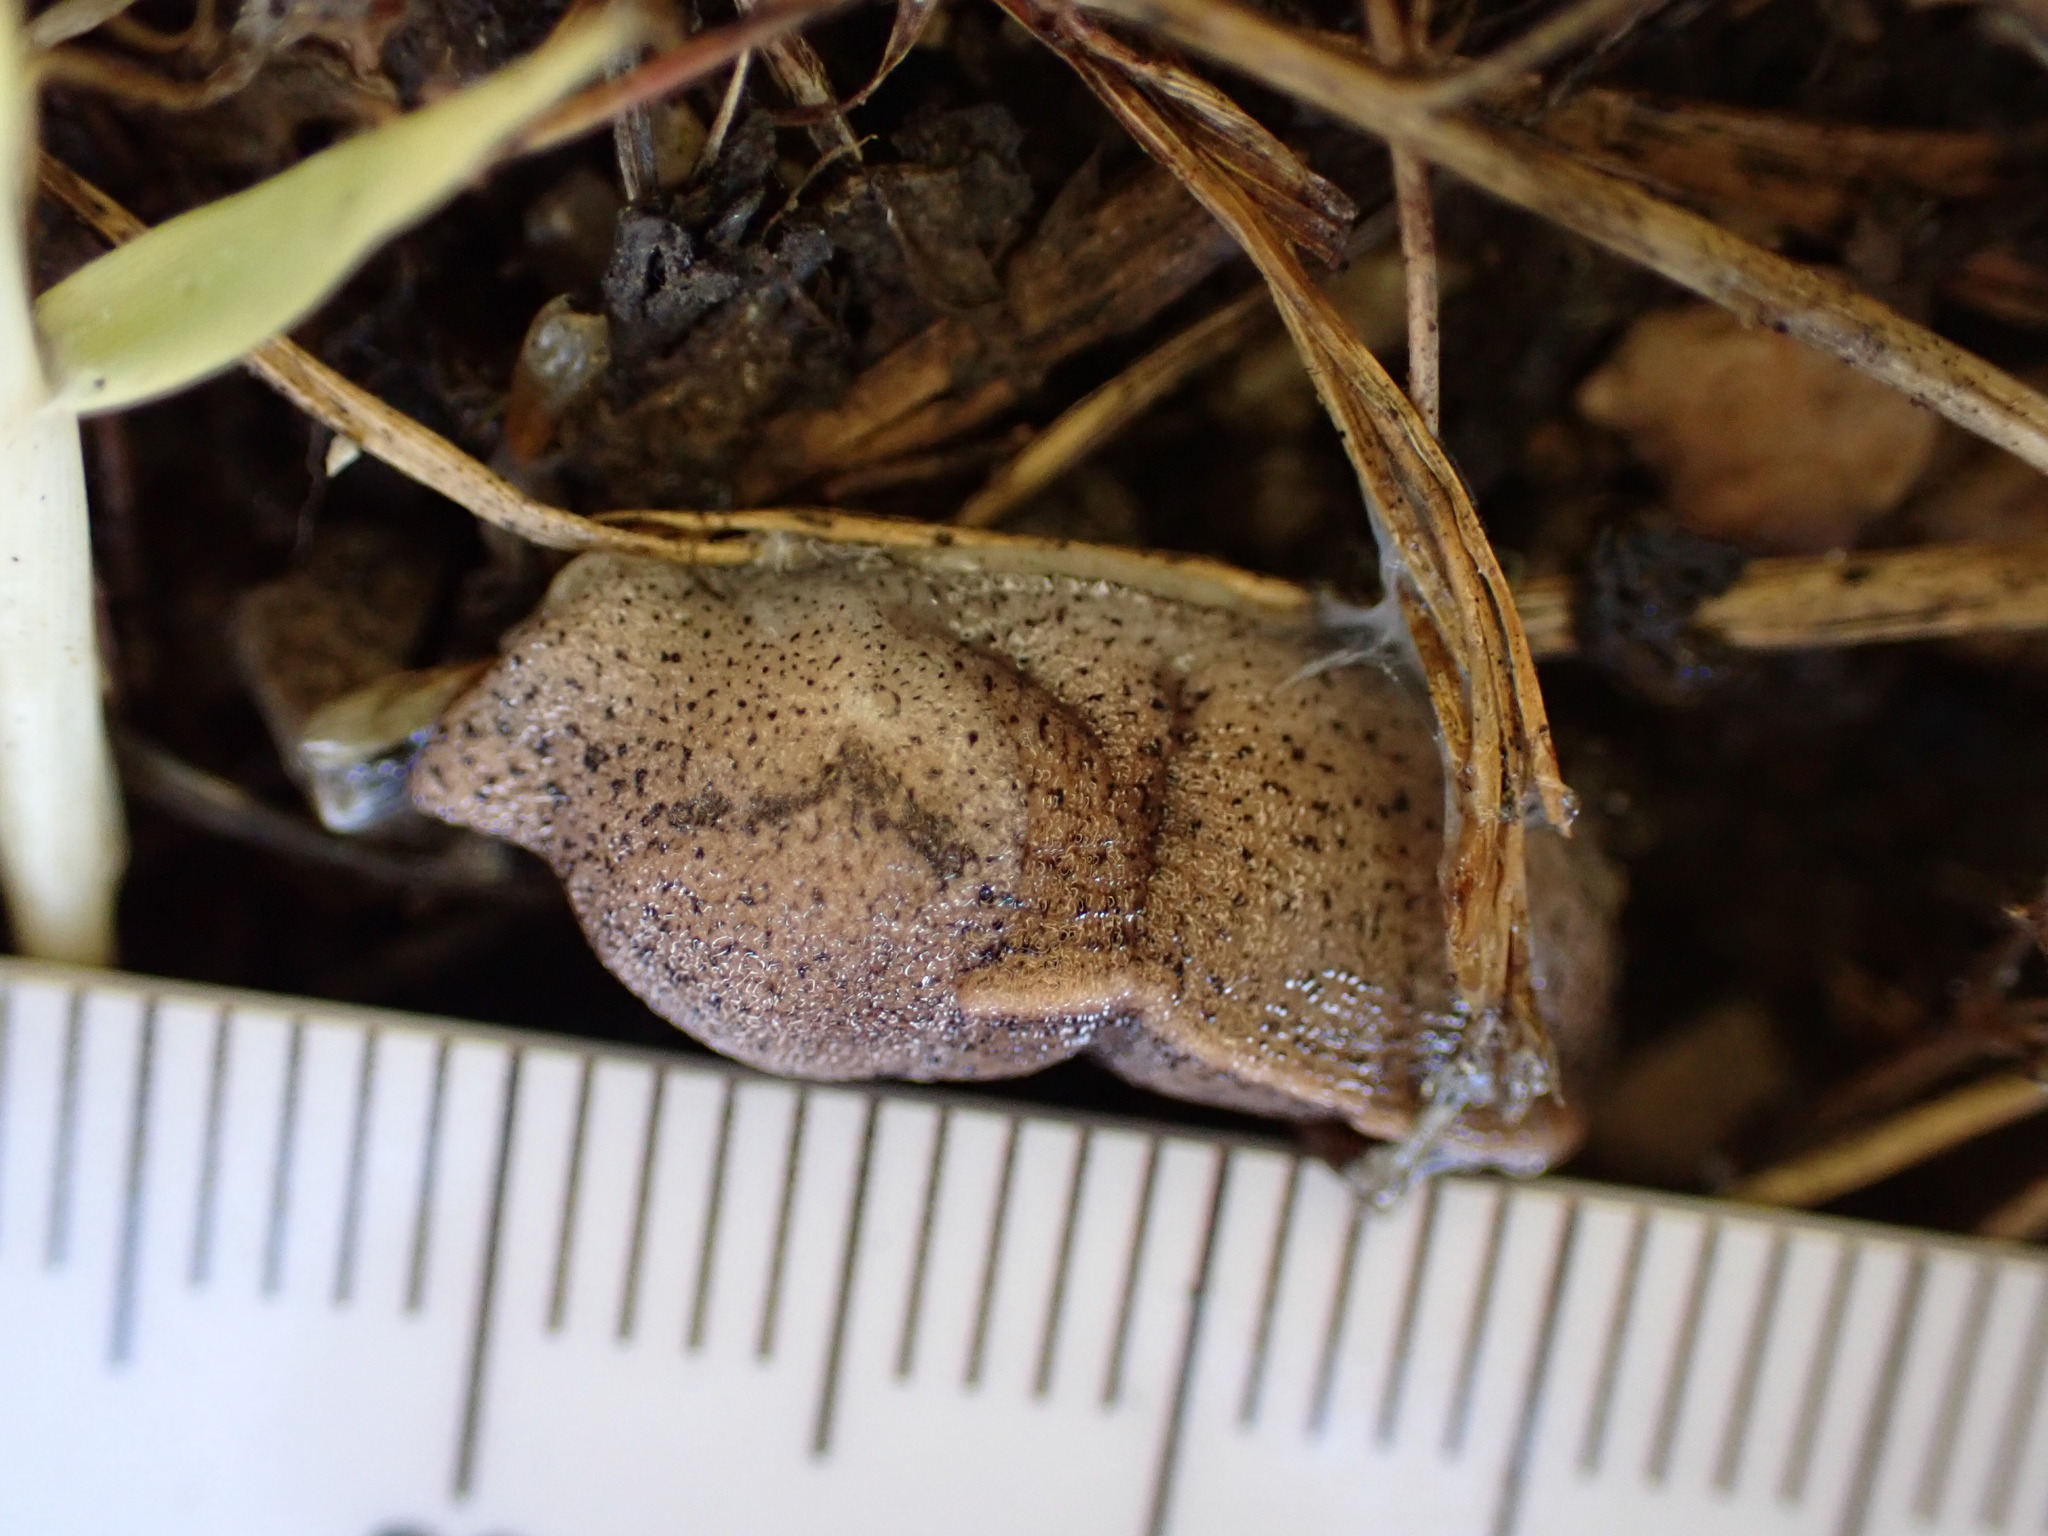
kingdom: Animalia
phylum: Mollusca
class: Gastropoda
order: Stylommatophora
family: Milacidae
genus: Tandonia
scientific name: Tandonia rustica
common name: Bulb-eating slug
